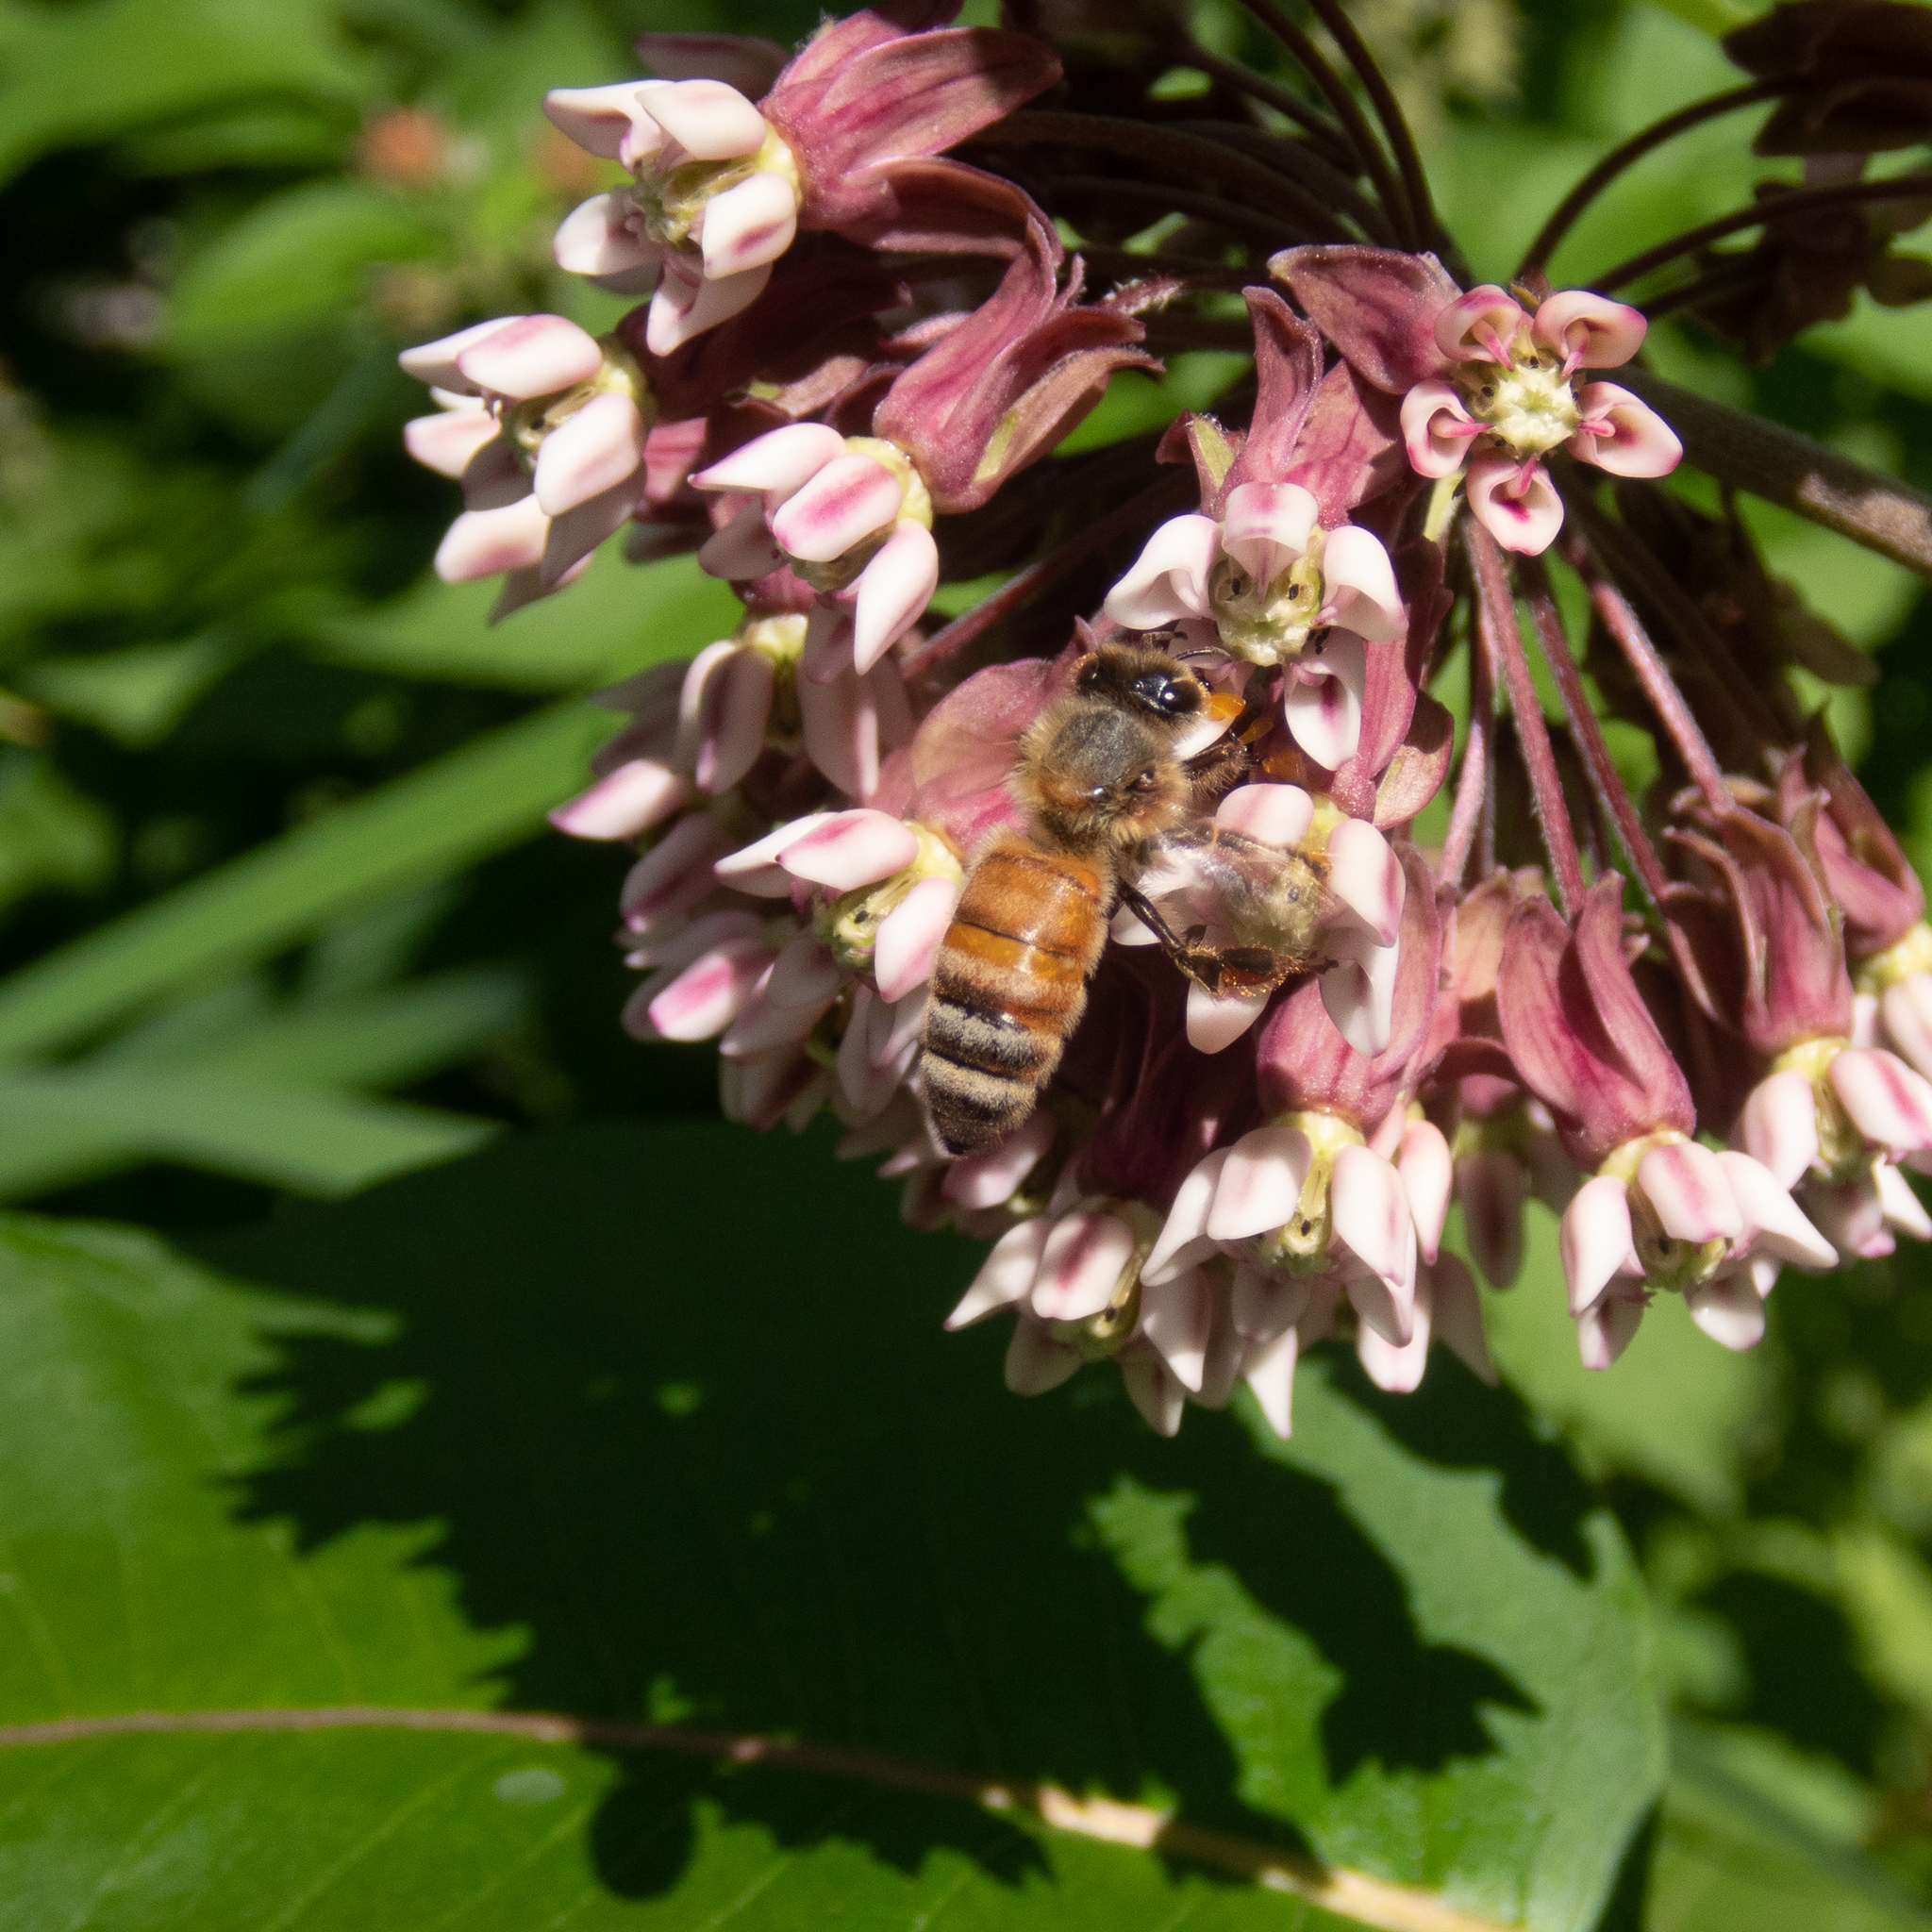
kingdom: Animalia
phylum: Arthropoda
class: Insecta
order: Hymenoptera
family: Apidae
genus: Apis
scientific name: Apis mellifera
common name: Honey bee
